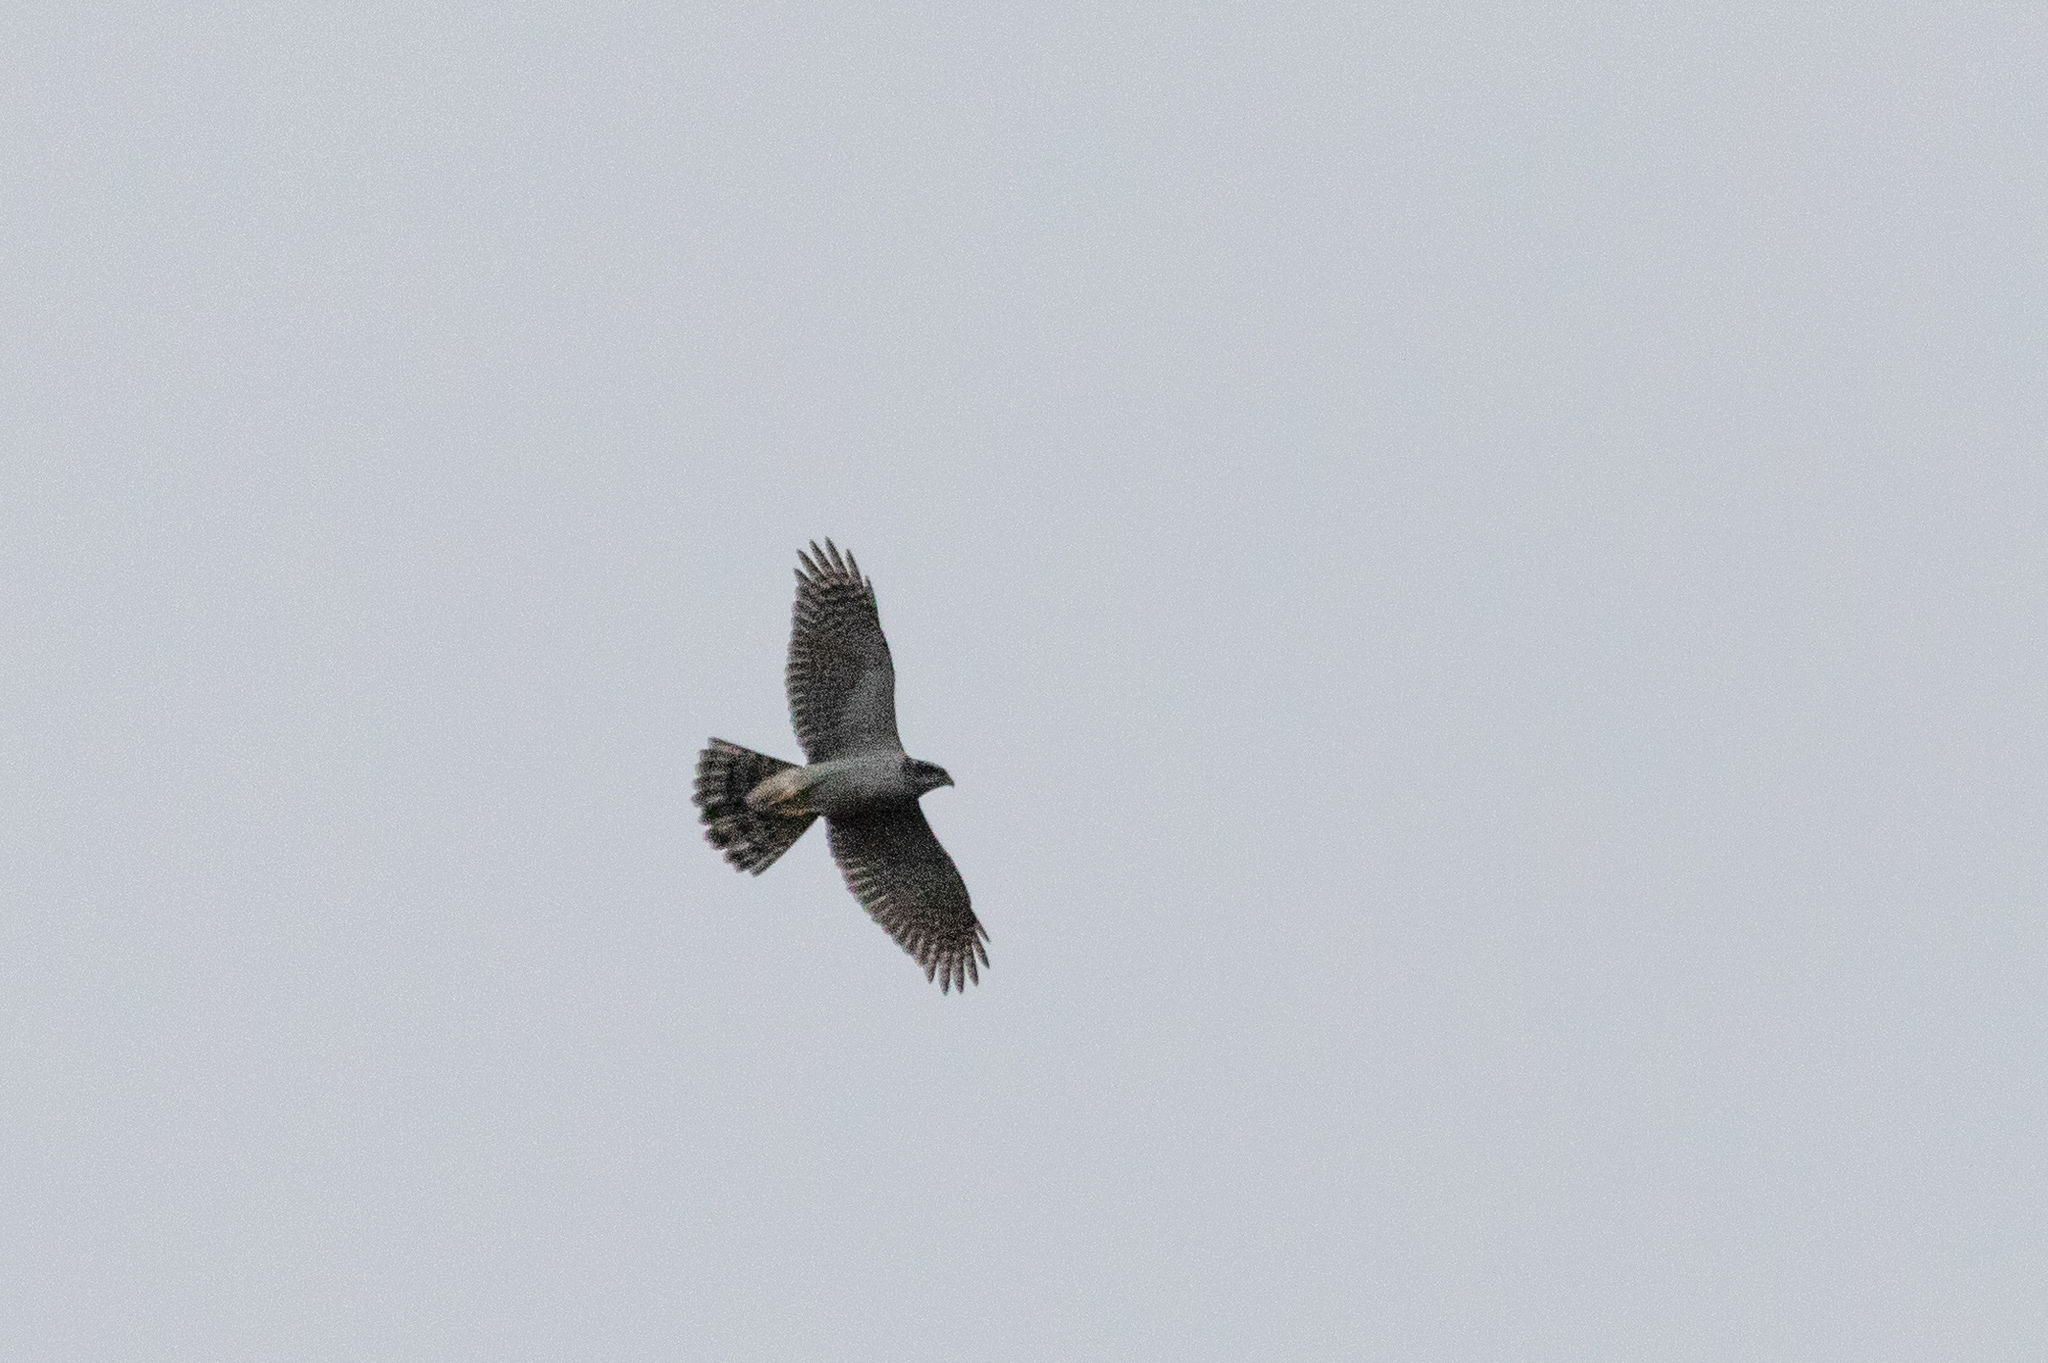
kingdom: Animalia
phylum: Chordata
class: Aves
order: Accipitriformes
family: Accipitridae
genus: Accipiter
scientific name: Accipiter gentilis
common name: Northern goshawk
